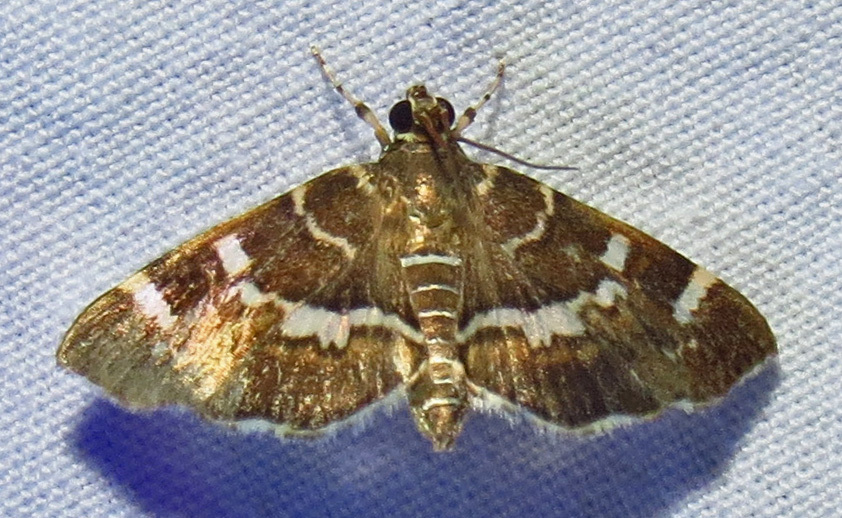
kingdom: Animalia
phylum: Arthropoda
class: Insecta
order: Lepidoptera
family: Crambidae
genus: Hymenia
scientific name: Hymenia perspectalis
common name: Spotted beet webworm
